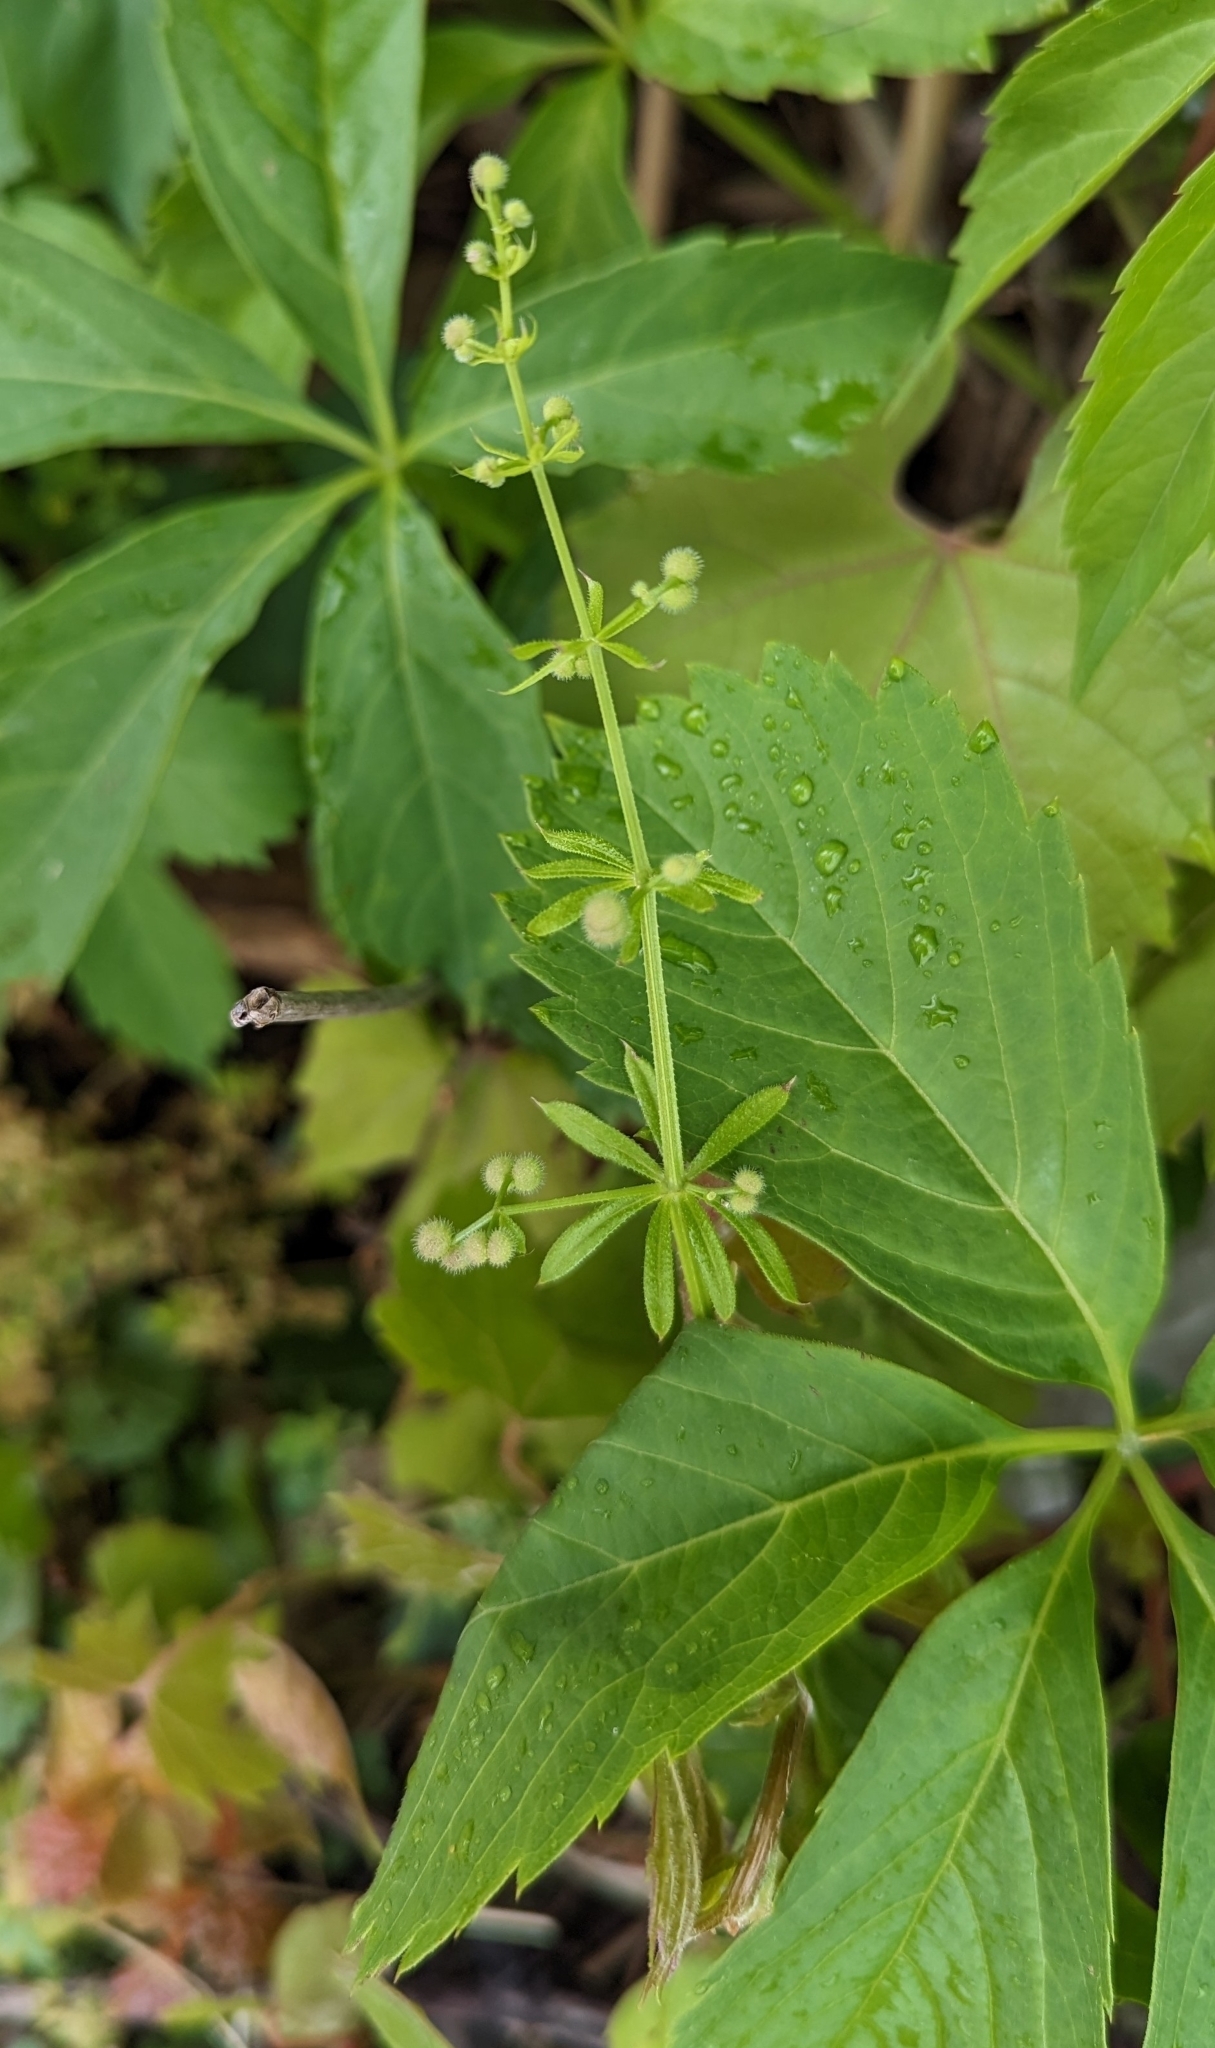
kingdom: Plantae
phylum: Tracheophyta
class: Magnoliopsida
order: Gentianales
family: Rubiaceae
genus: Galium
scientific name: Galium aparine
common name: Cleavers
